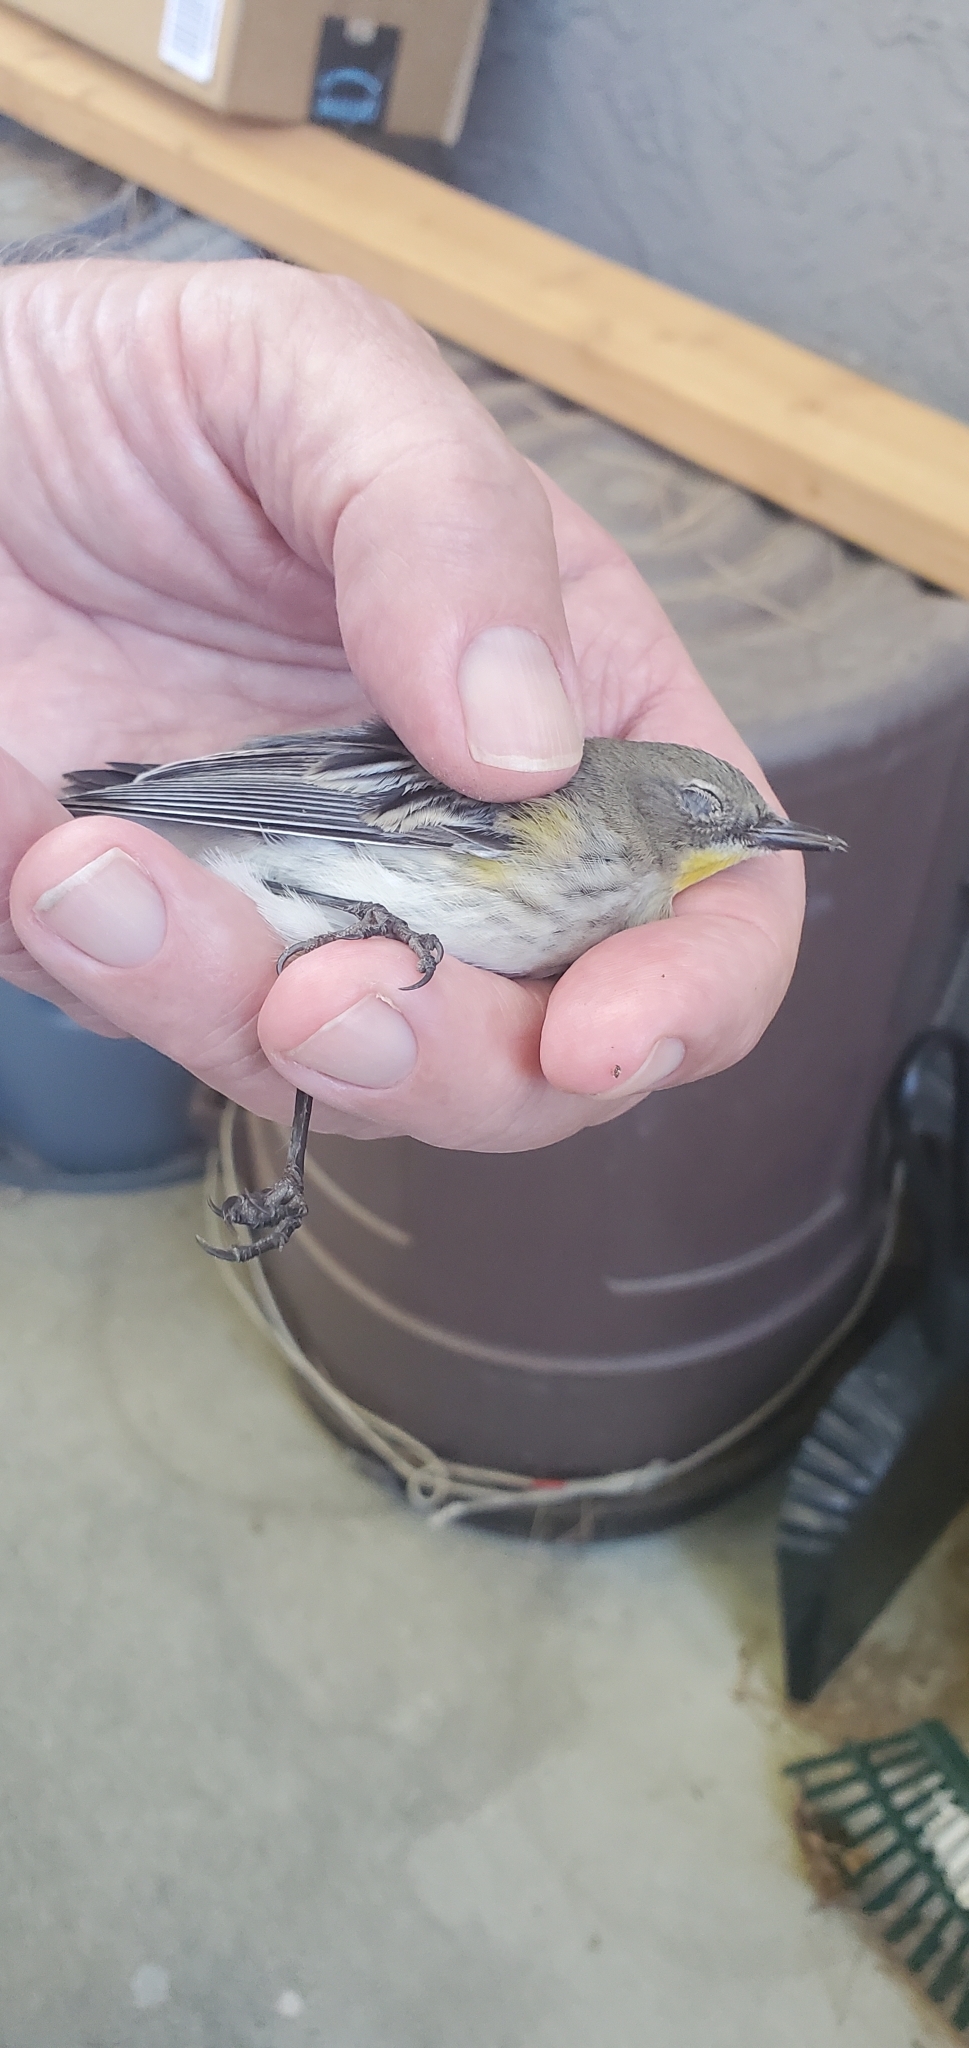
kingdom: Animalia
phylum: Chordata
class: Aves
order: Passeriformes
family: Parulidae
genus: Setophaga
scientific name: Setophaga auduboni
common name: Audubon's warbler
